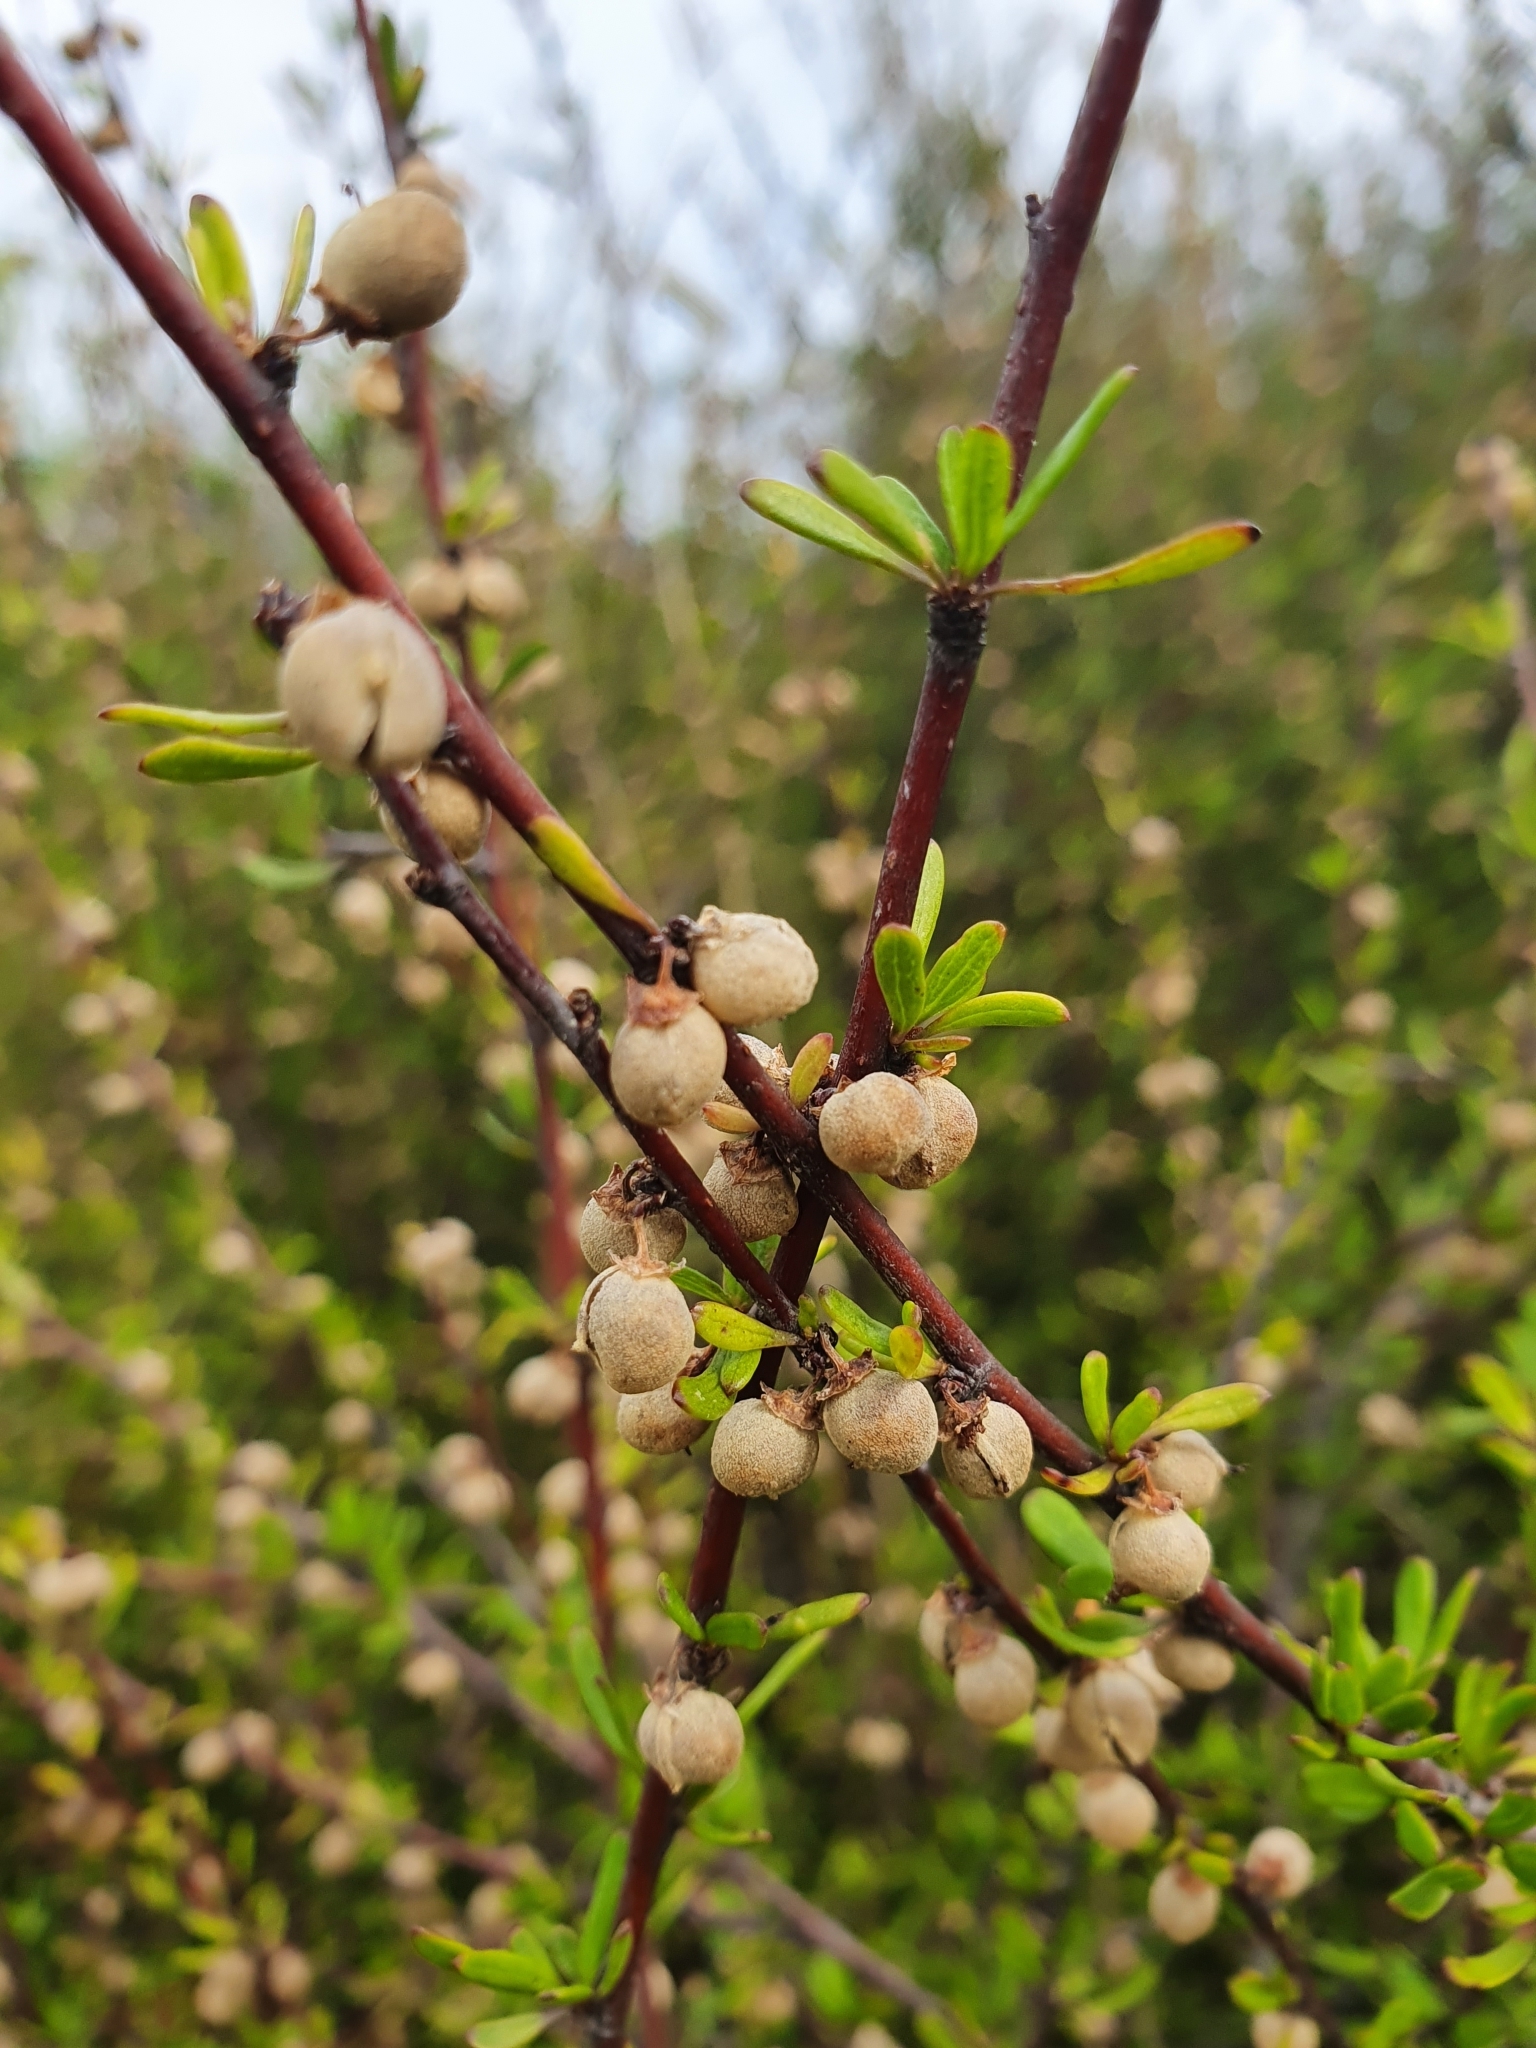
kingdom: Plantae
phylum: Tracheophyta
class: Magnoliopsida
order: Malvales
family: Malvaceae
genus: Plagianthus
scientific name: Plagianthus divaricatus
